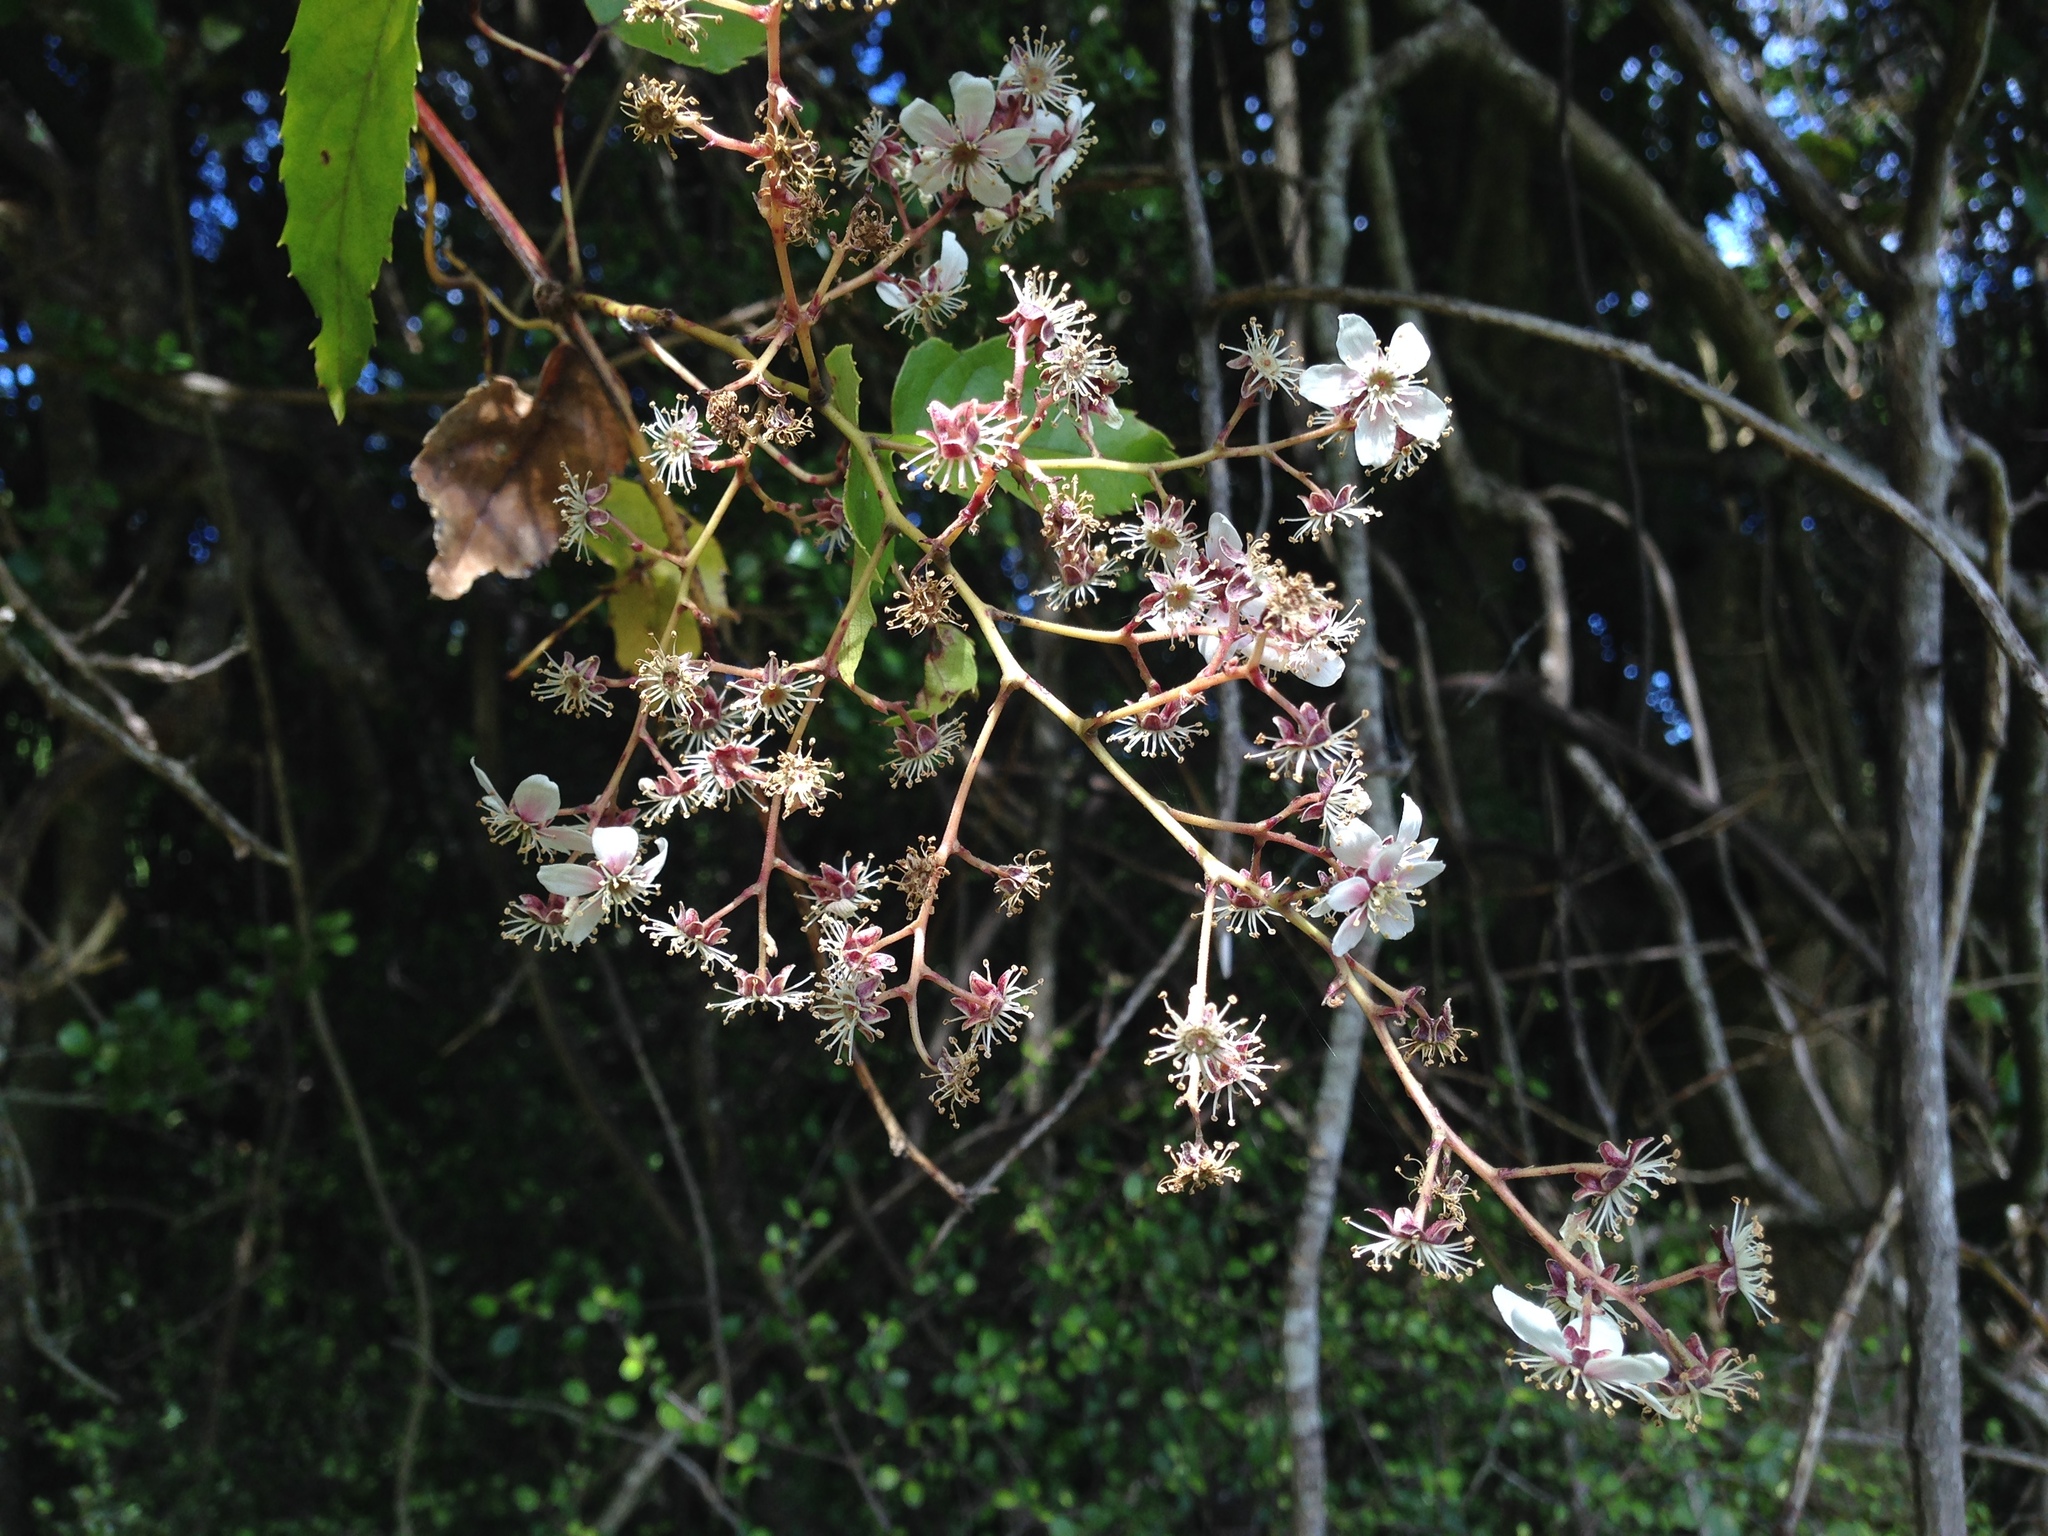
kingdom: Plantae
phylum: Tracheophyta
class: Magnoliopsida
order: Rosales
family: Rosaceae
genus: Rubus
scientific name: Rubus cissoides
